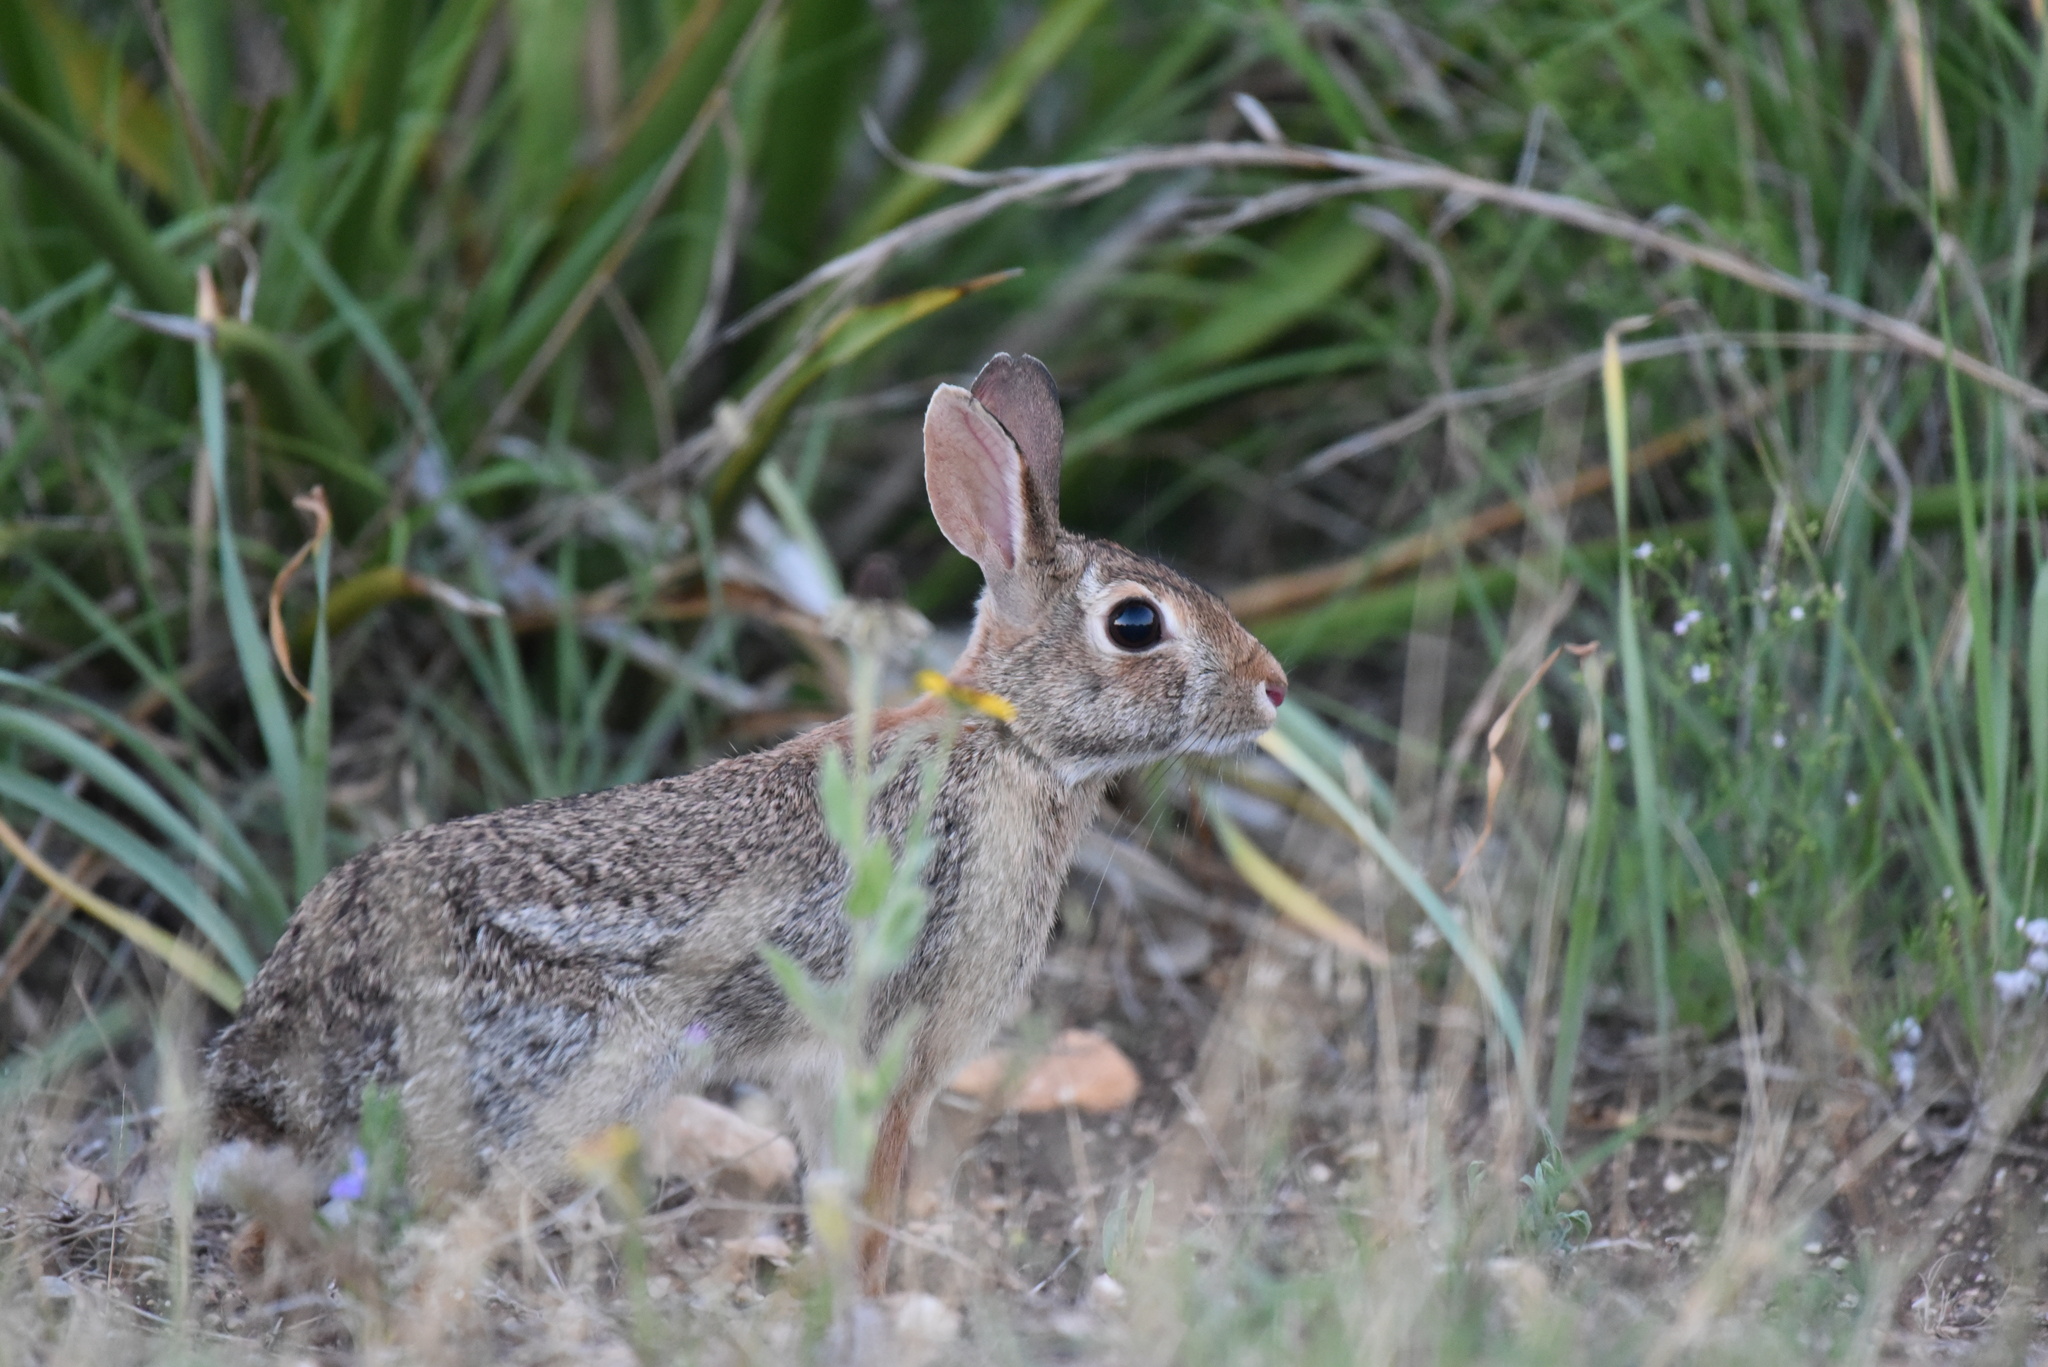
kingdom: Animalia
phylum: Chordata
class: Mammalia
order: Lagomorpha
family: Leporidae
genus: Sylvilagus
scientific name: Sylvilagus floridanus
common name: Eastern cottontail
